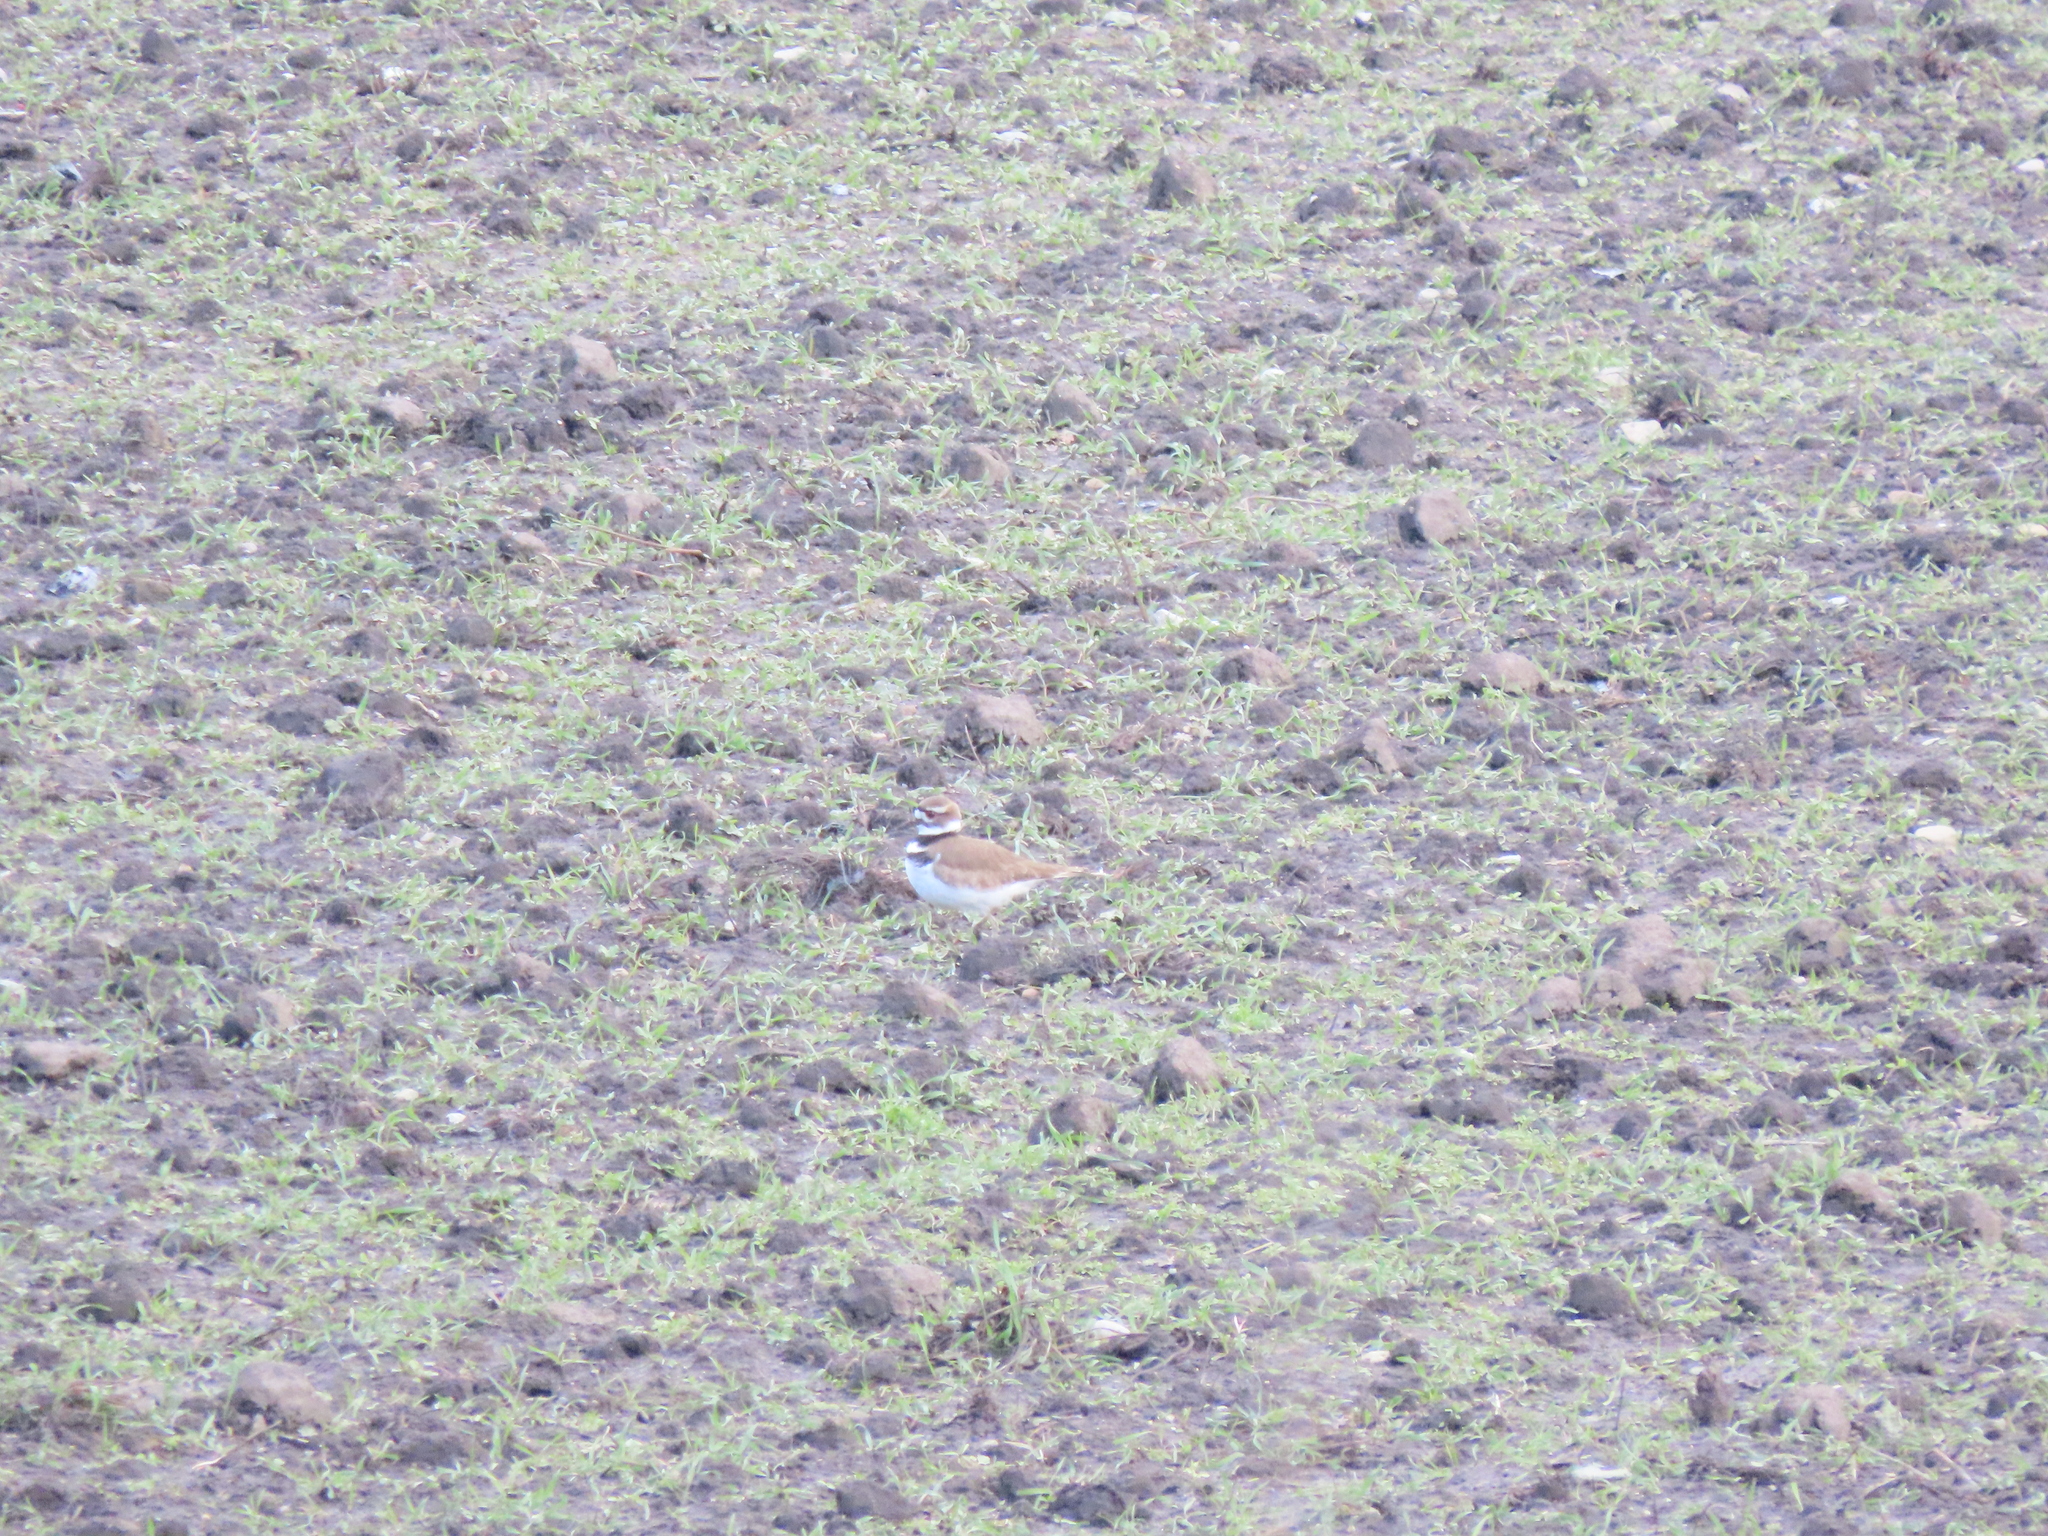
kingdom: Animalia
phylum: Chordata
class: Aves
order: Charadriiformes
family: Charadriidae
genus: Charadrius
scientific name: Charadrius vociferus
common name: Killdeer
